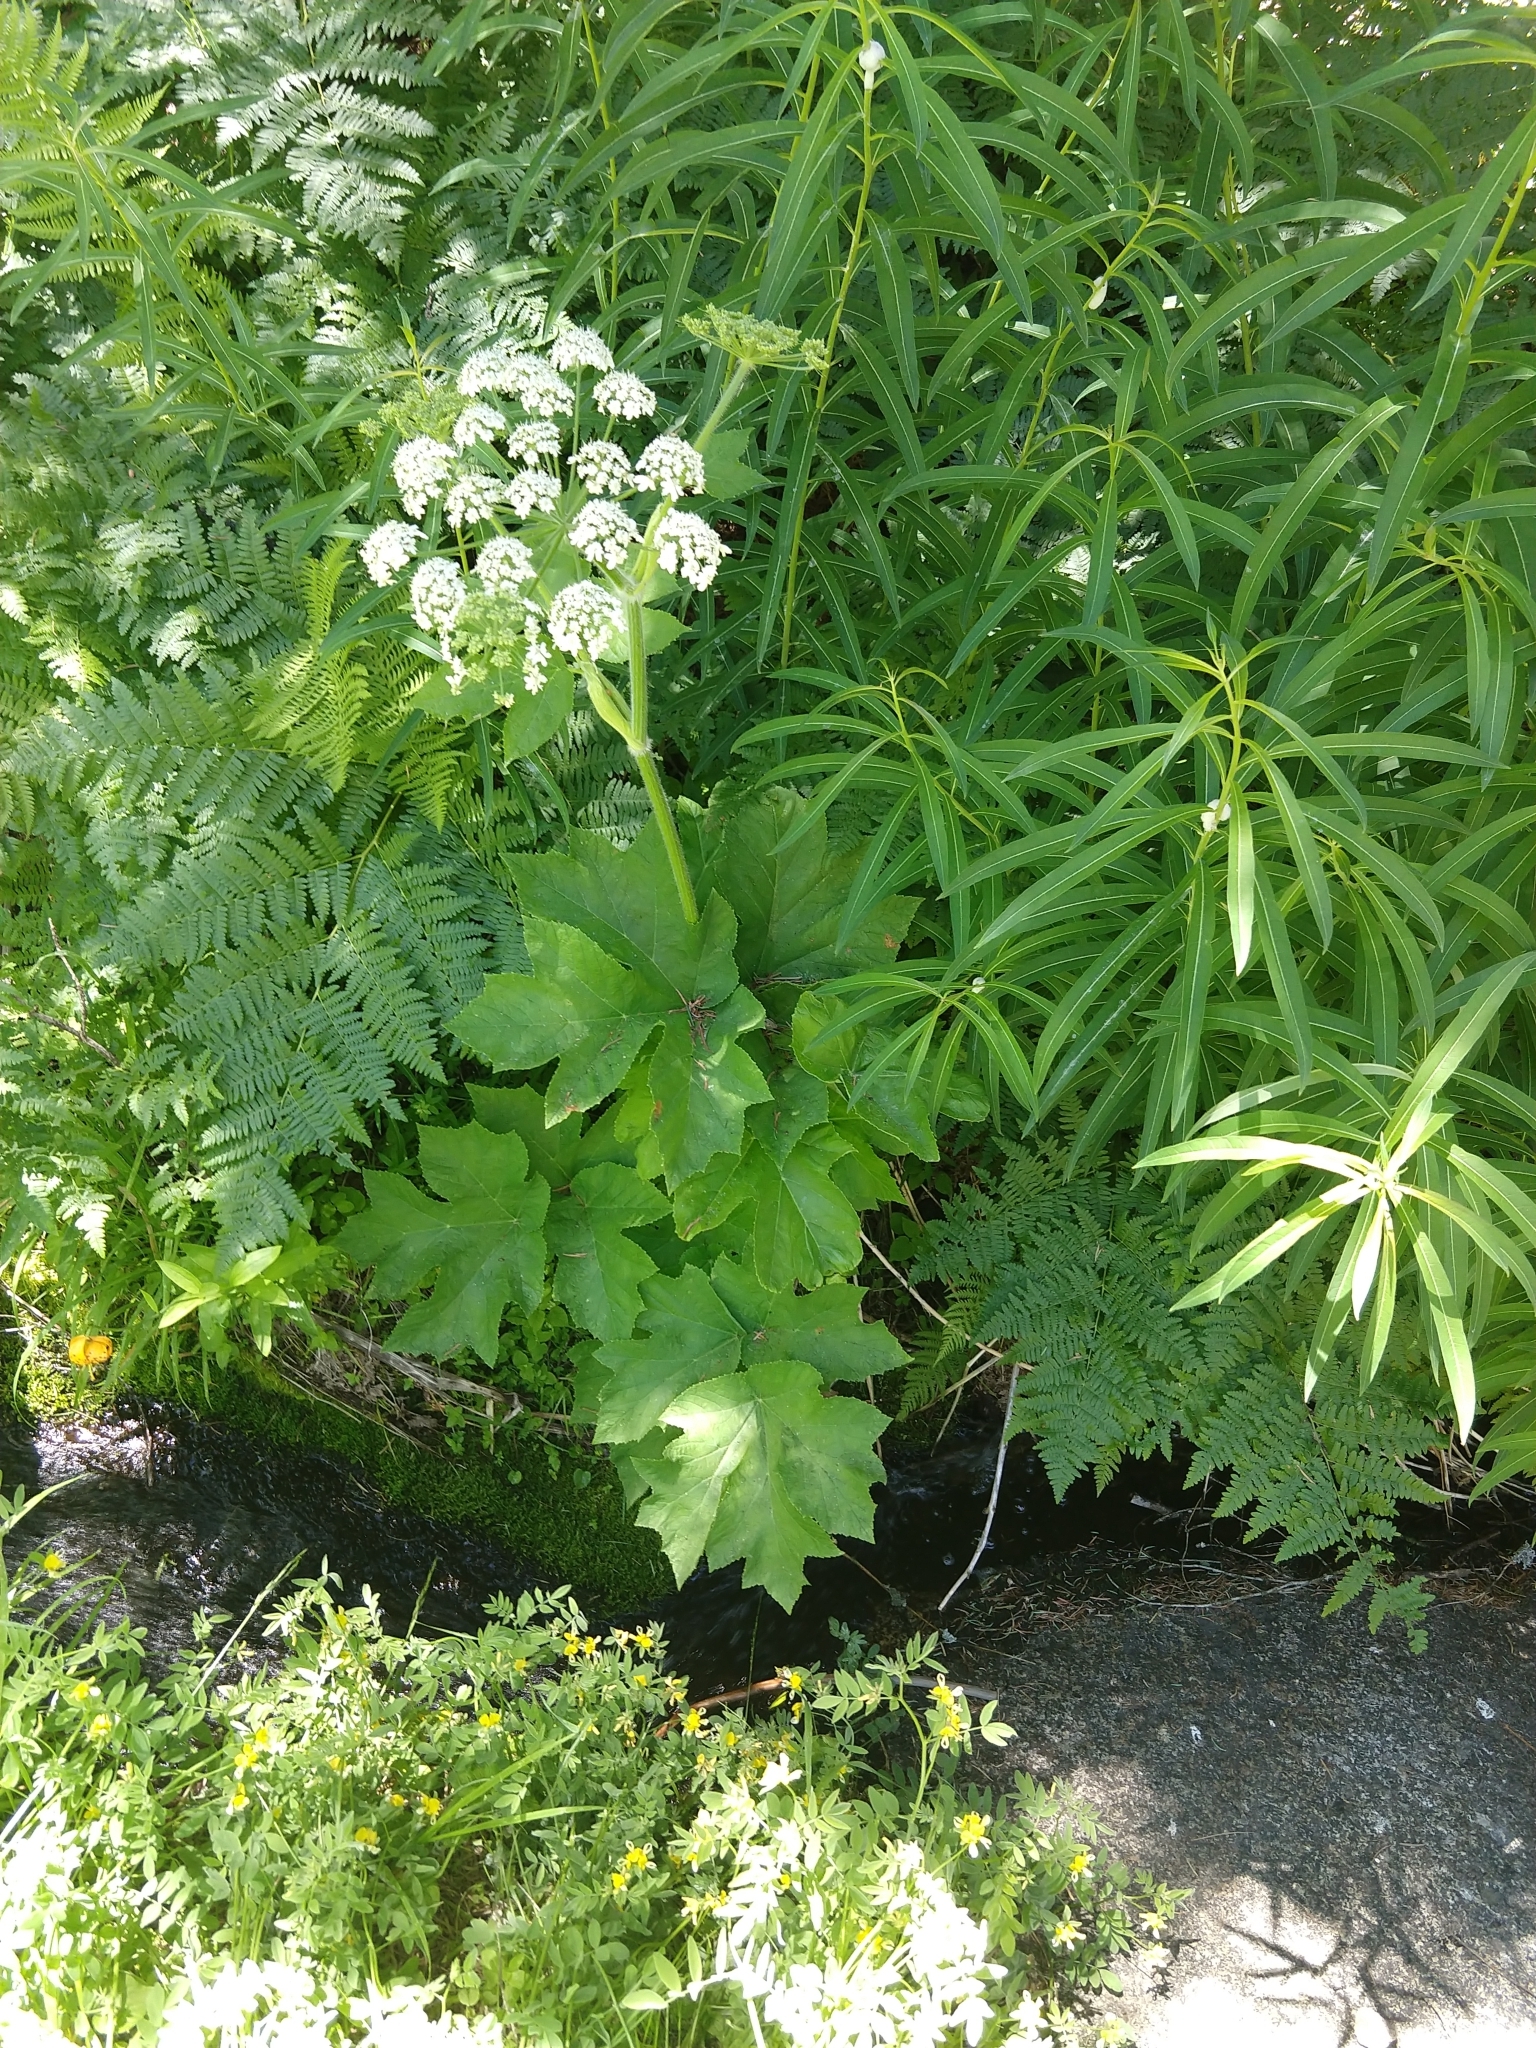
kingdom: Plantae
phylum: Tracheophyta
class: Magnoliopsida
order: Apiales
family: Apiaceae
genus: Heracleum
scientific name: Heracleum maximum
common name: American cow parsnip
